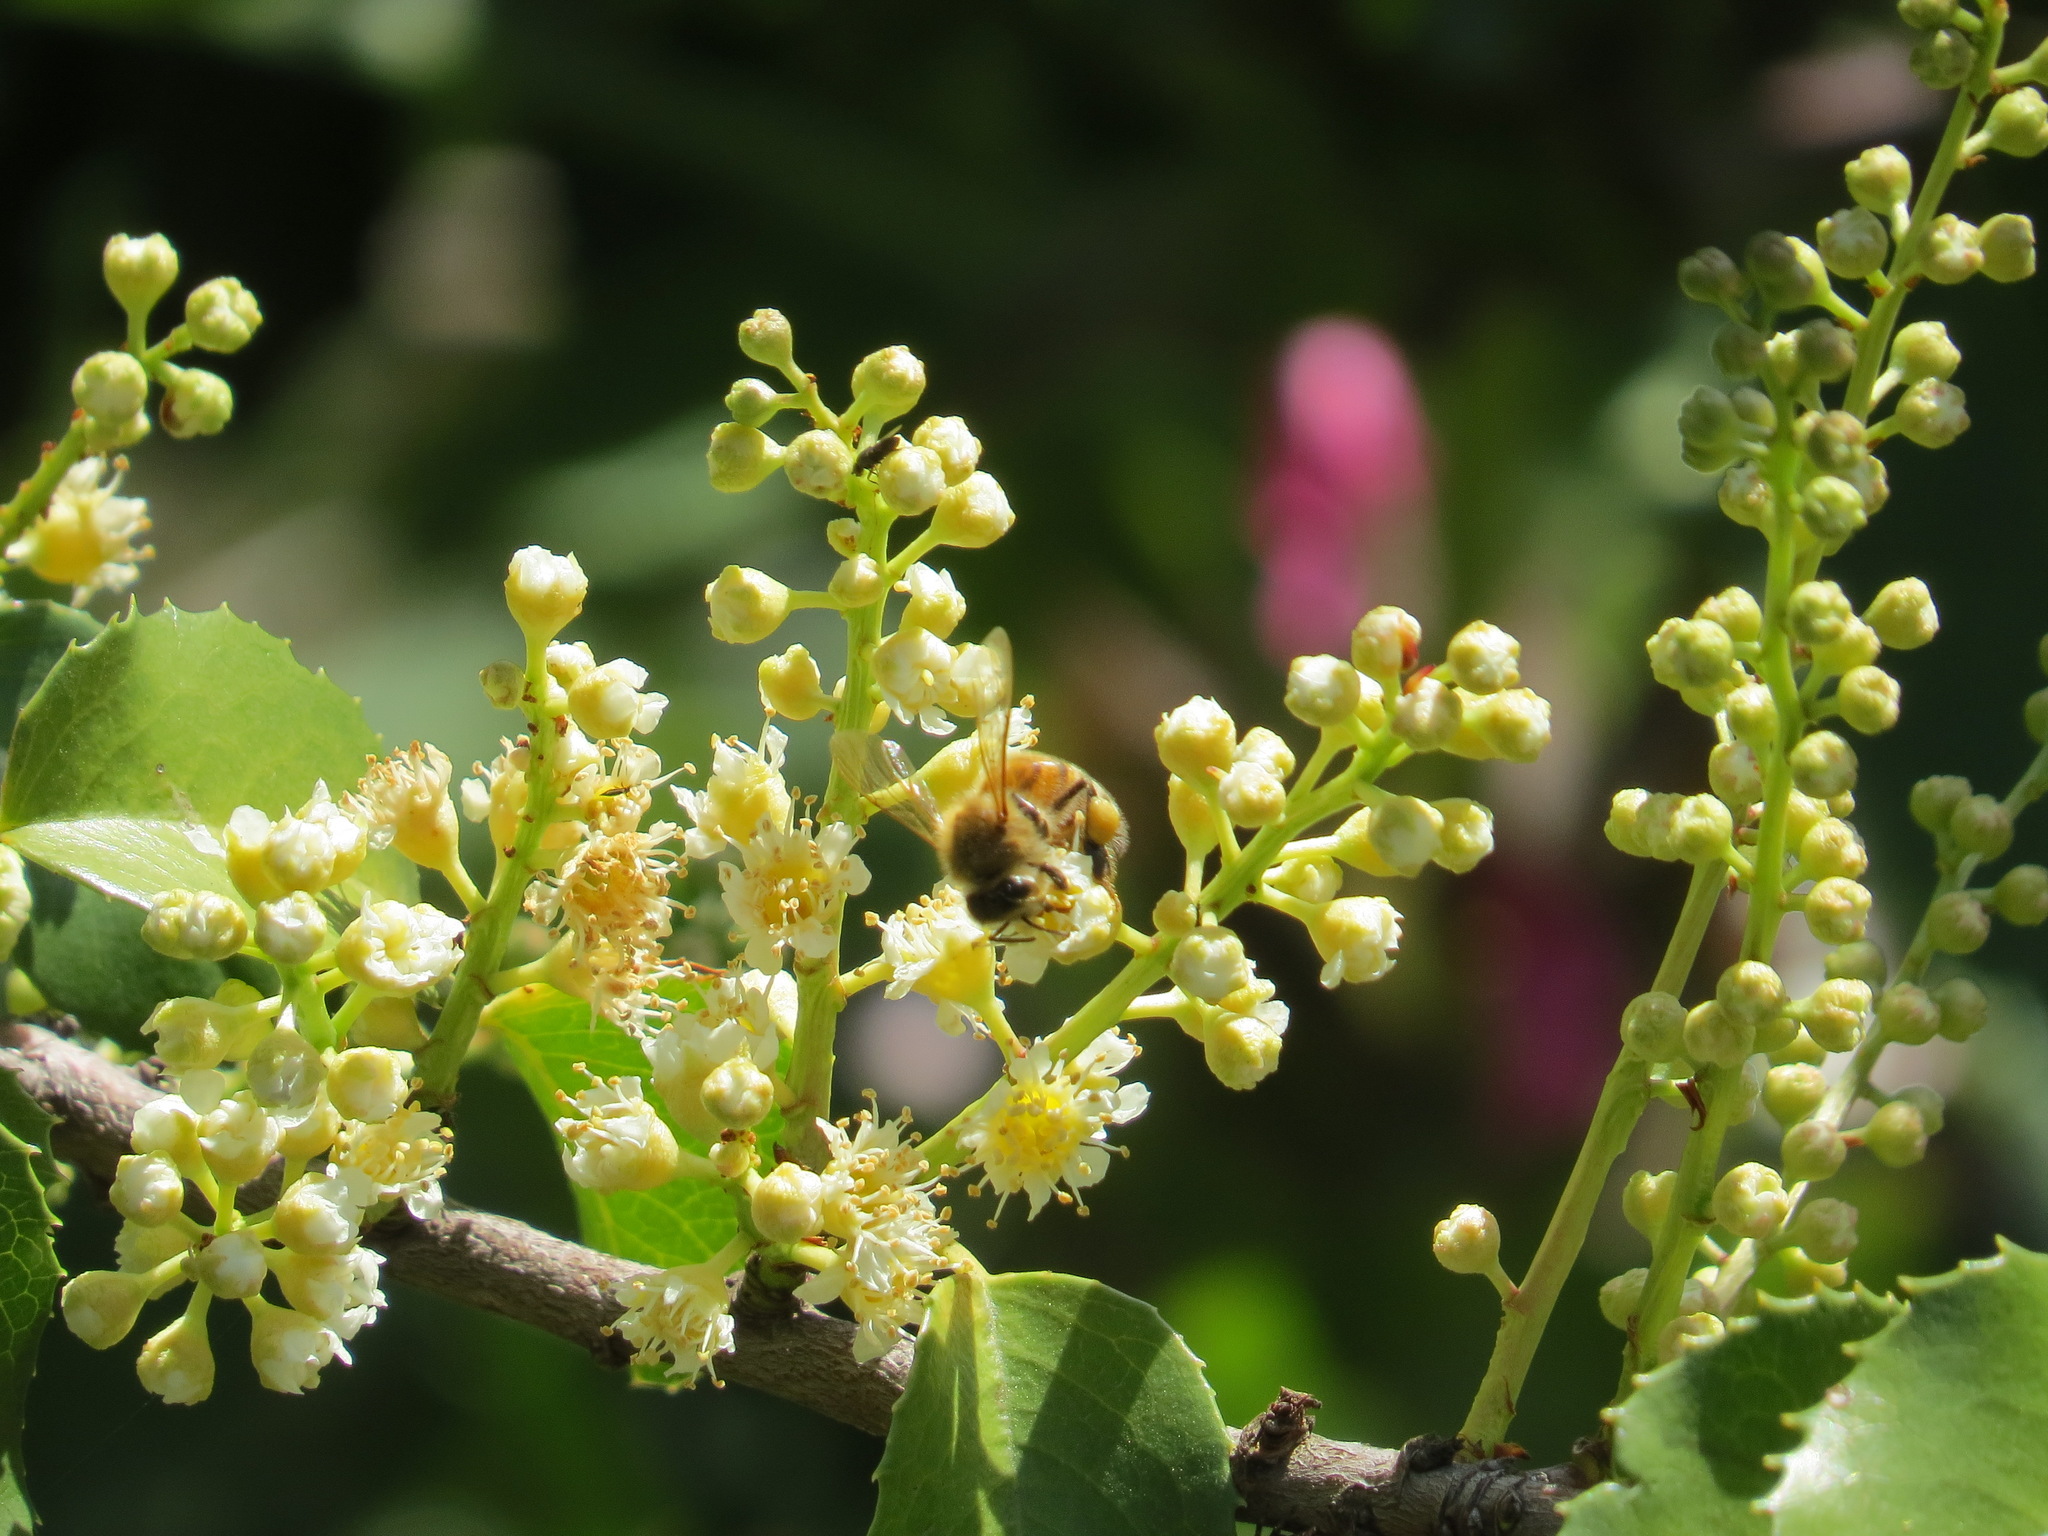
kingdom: Animalia
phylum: Arthropoda
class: Insecta
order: Hymenoptera
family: Apidae
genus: Apis
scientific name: Apis mellifera
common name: Honey bee
